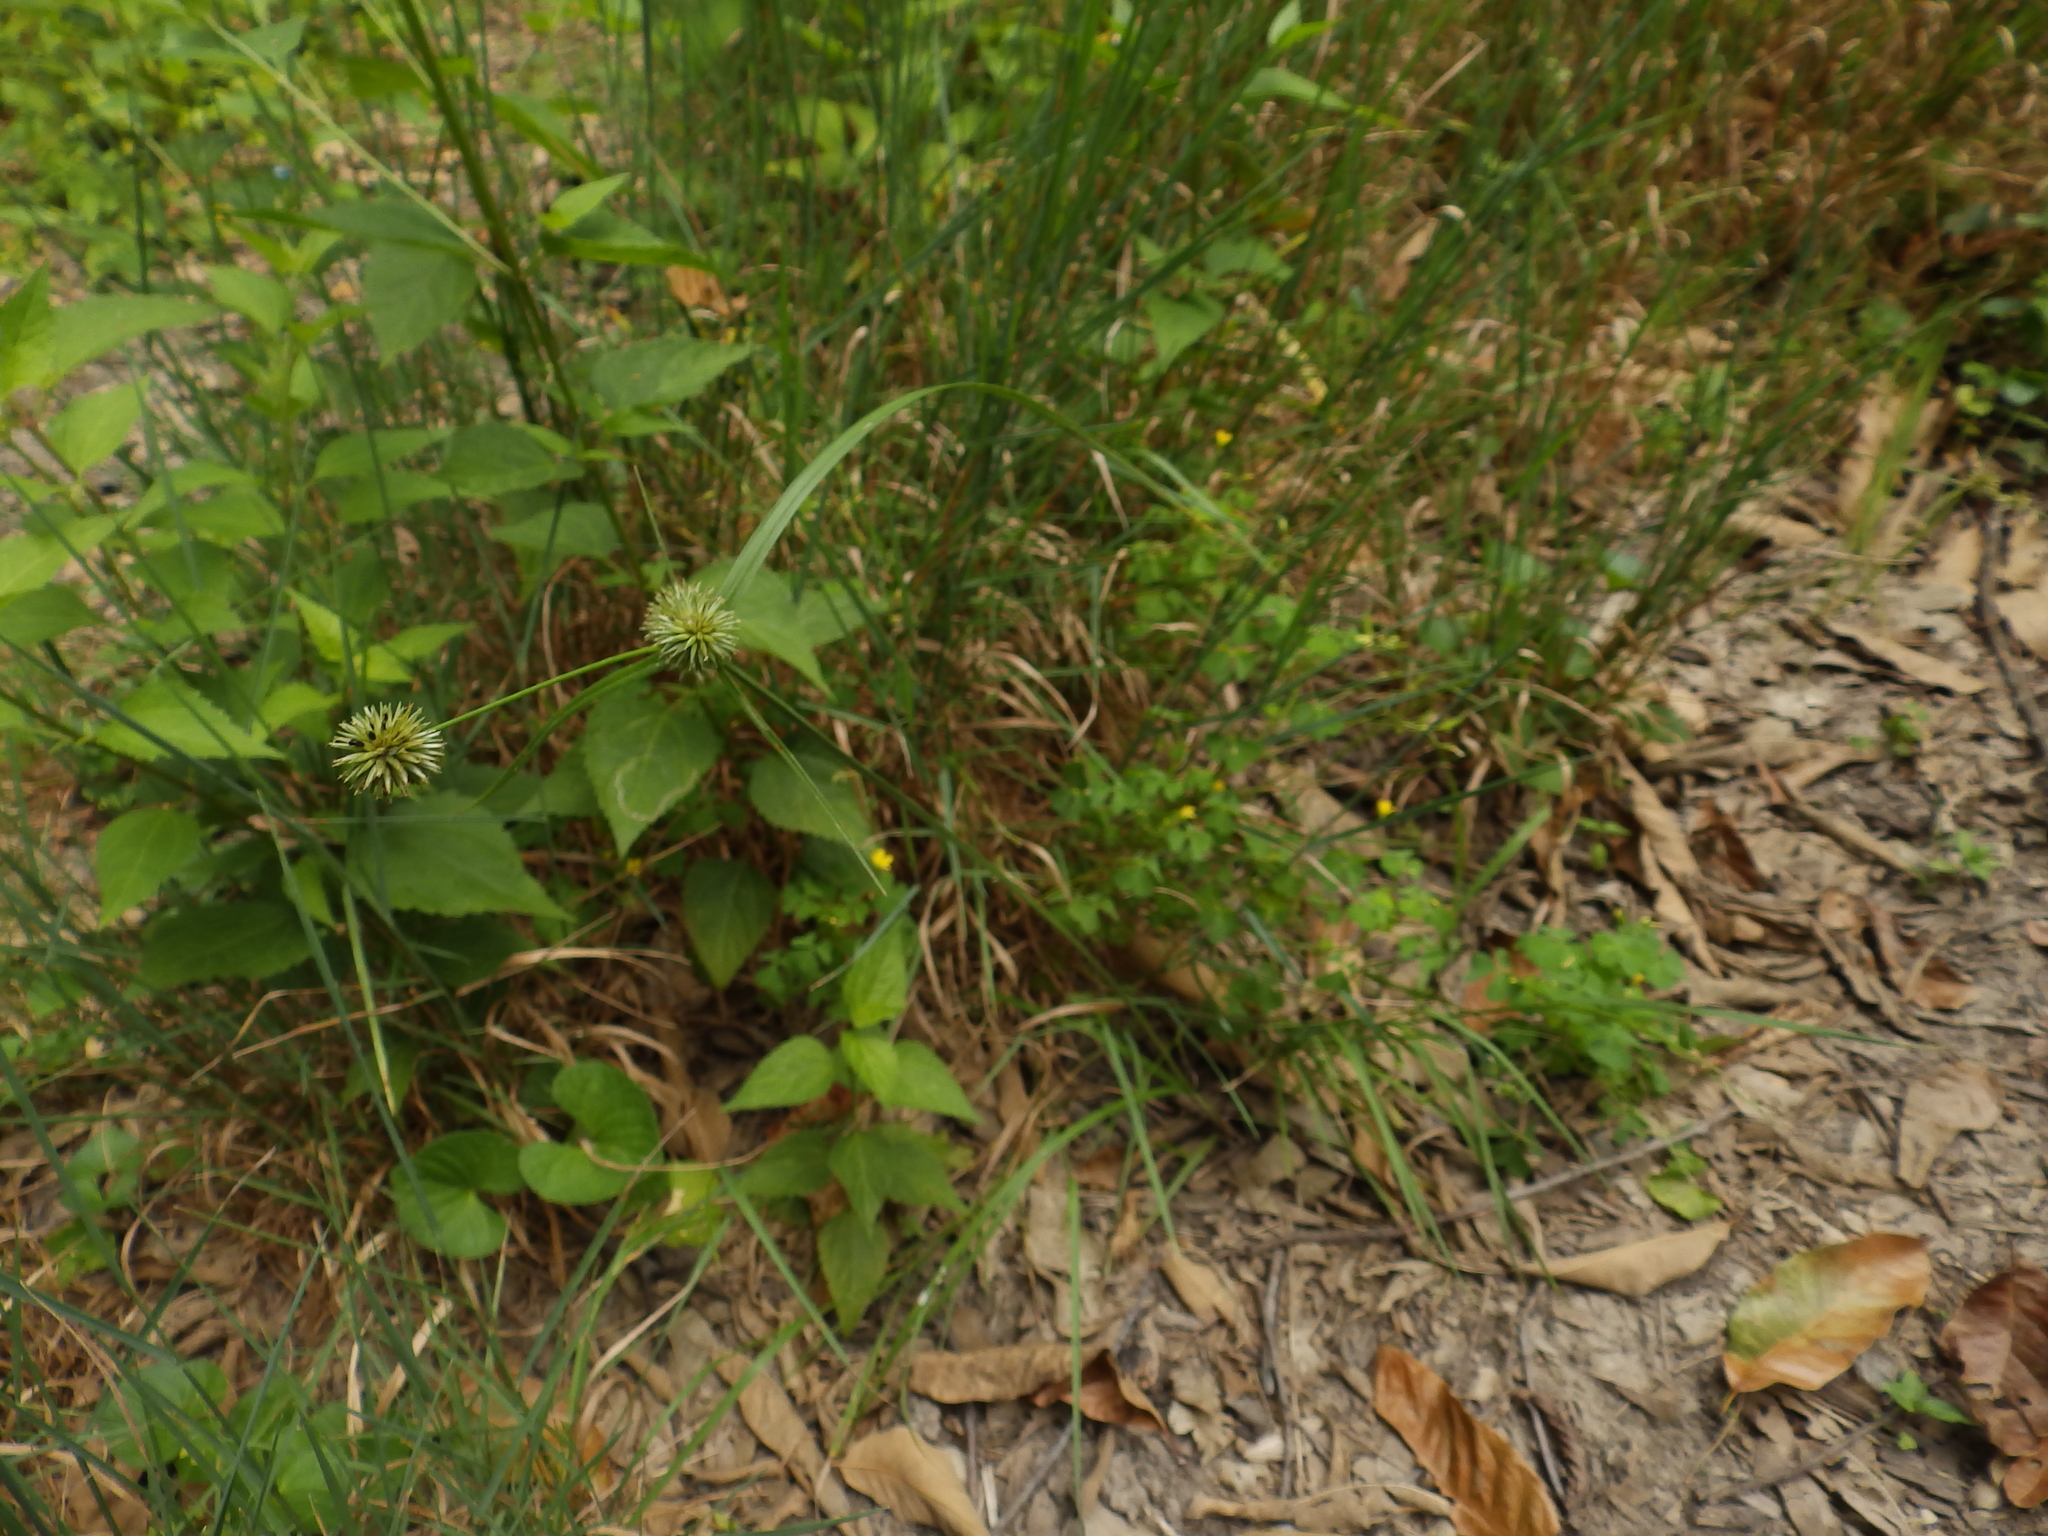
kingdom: Plantae
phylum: Tracheophyta
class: Liliopsida
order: Poales
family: Cyperaceae
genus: Cyperus
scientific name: Cyperus echinatus
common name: Teasel sedge
